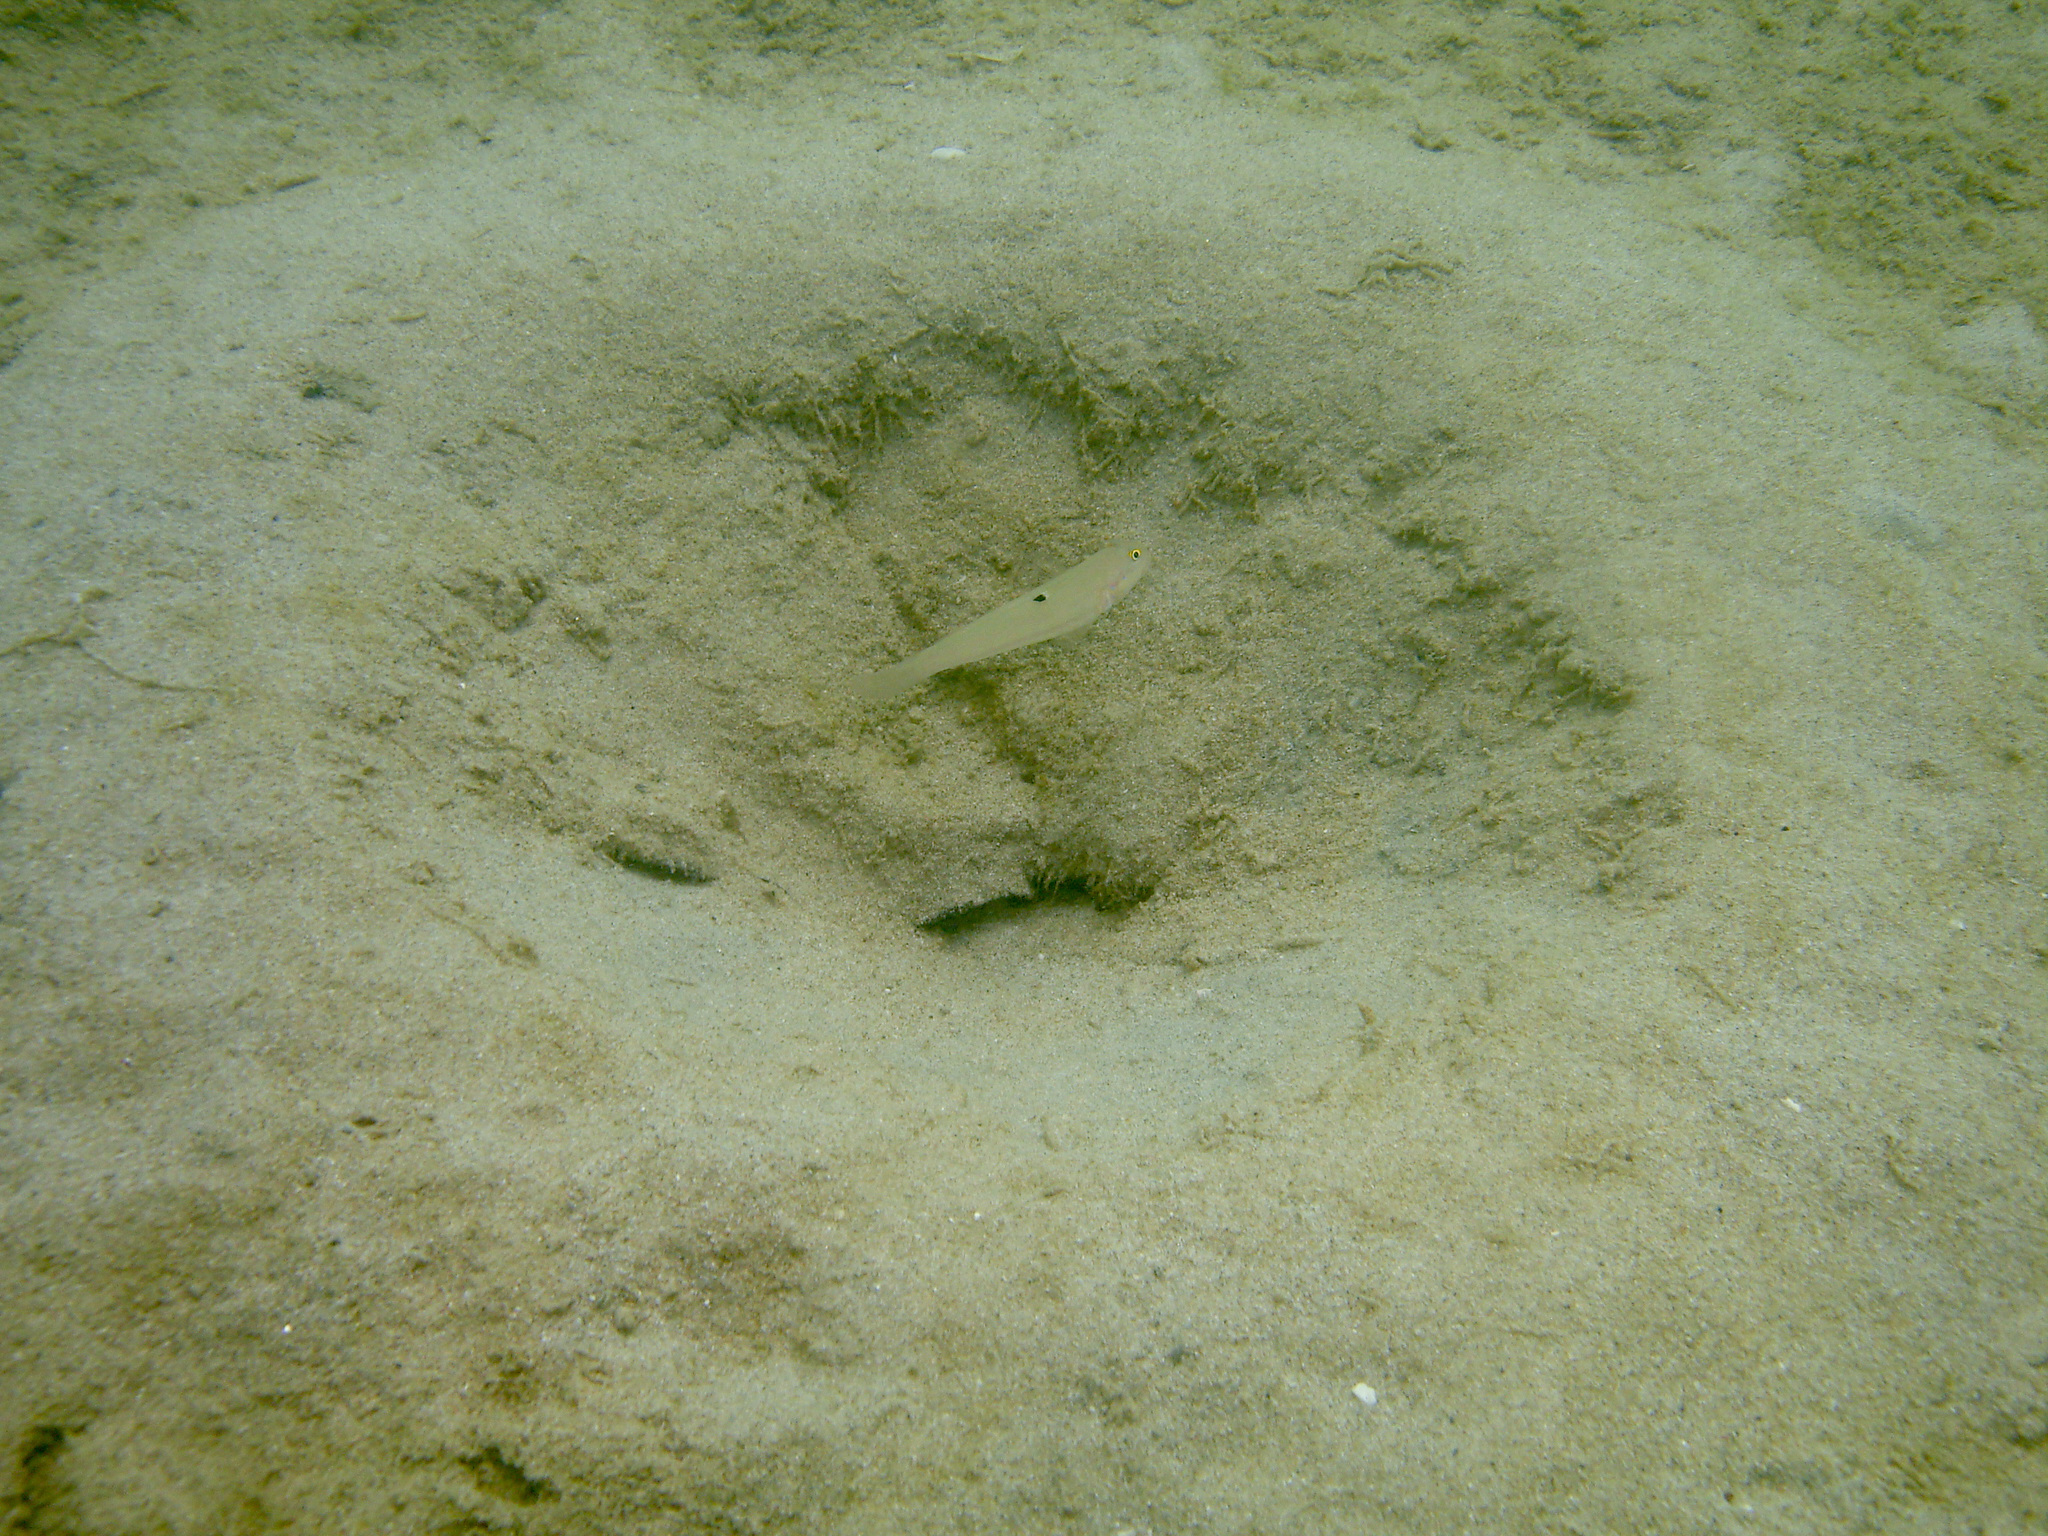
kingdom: Animalia
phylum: Chordata
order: Perciformes
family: Gobiidae
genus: Valenciennea
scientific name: Valenciennea sexguttata
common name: Sixspot goby
